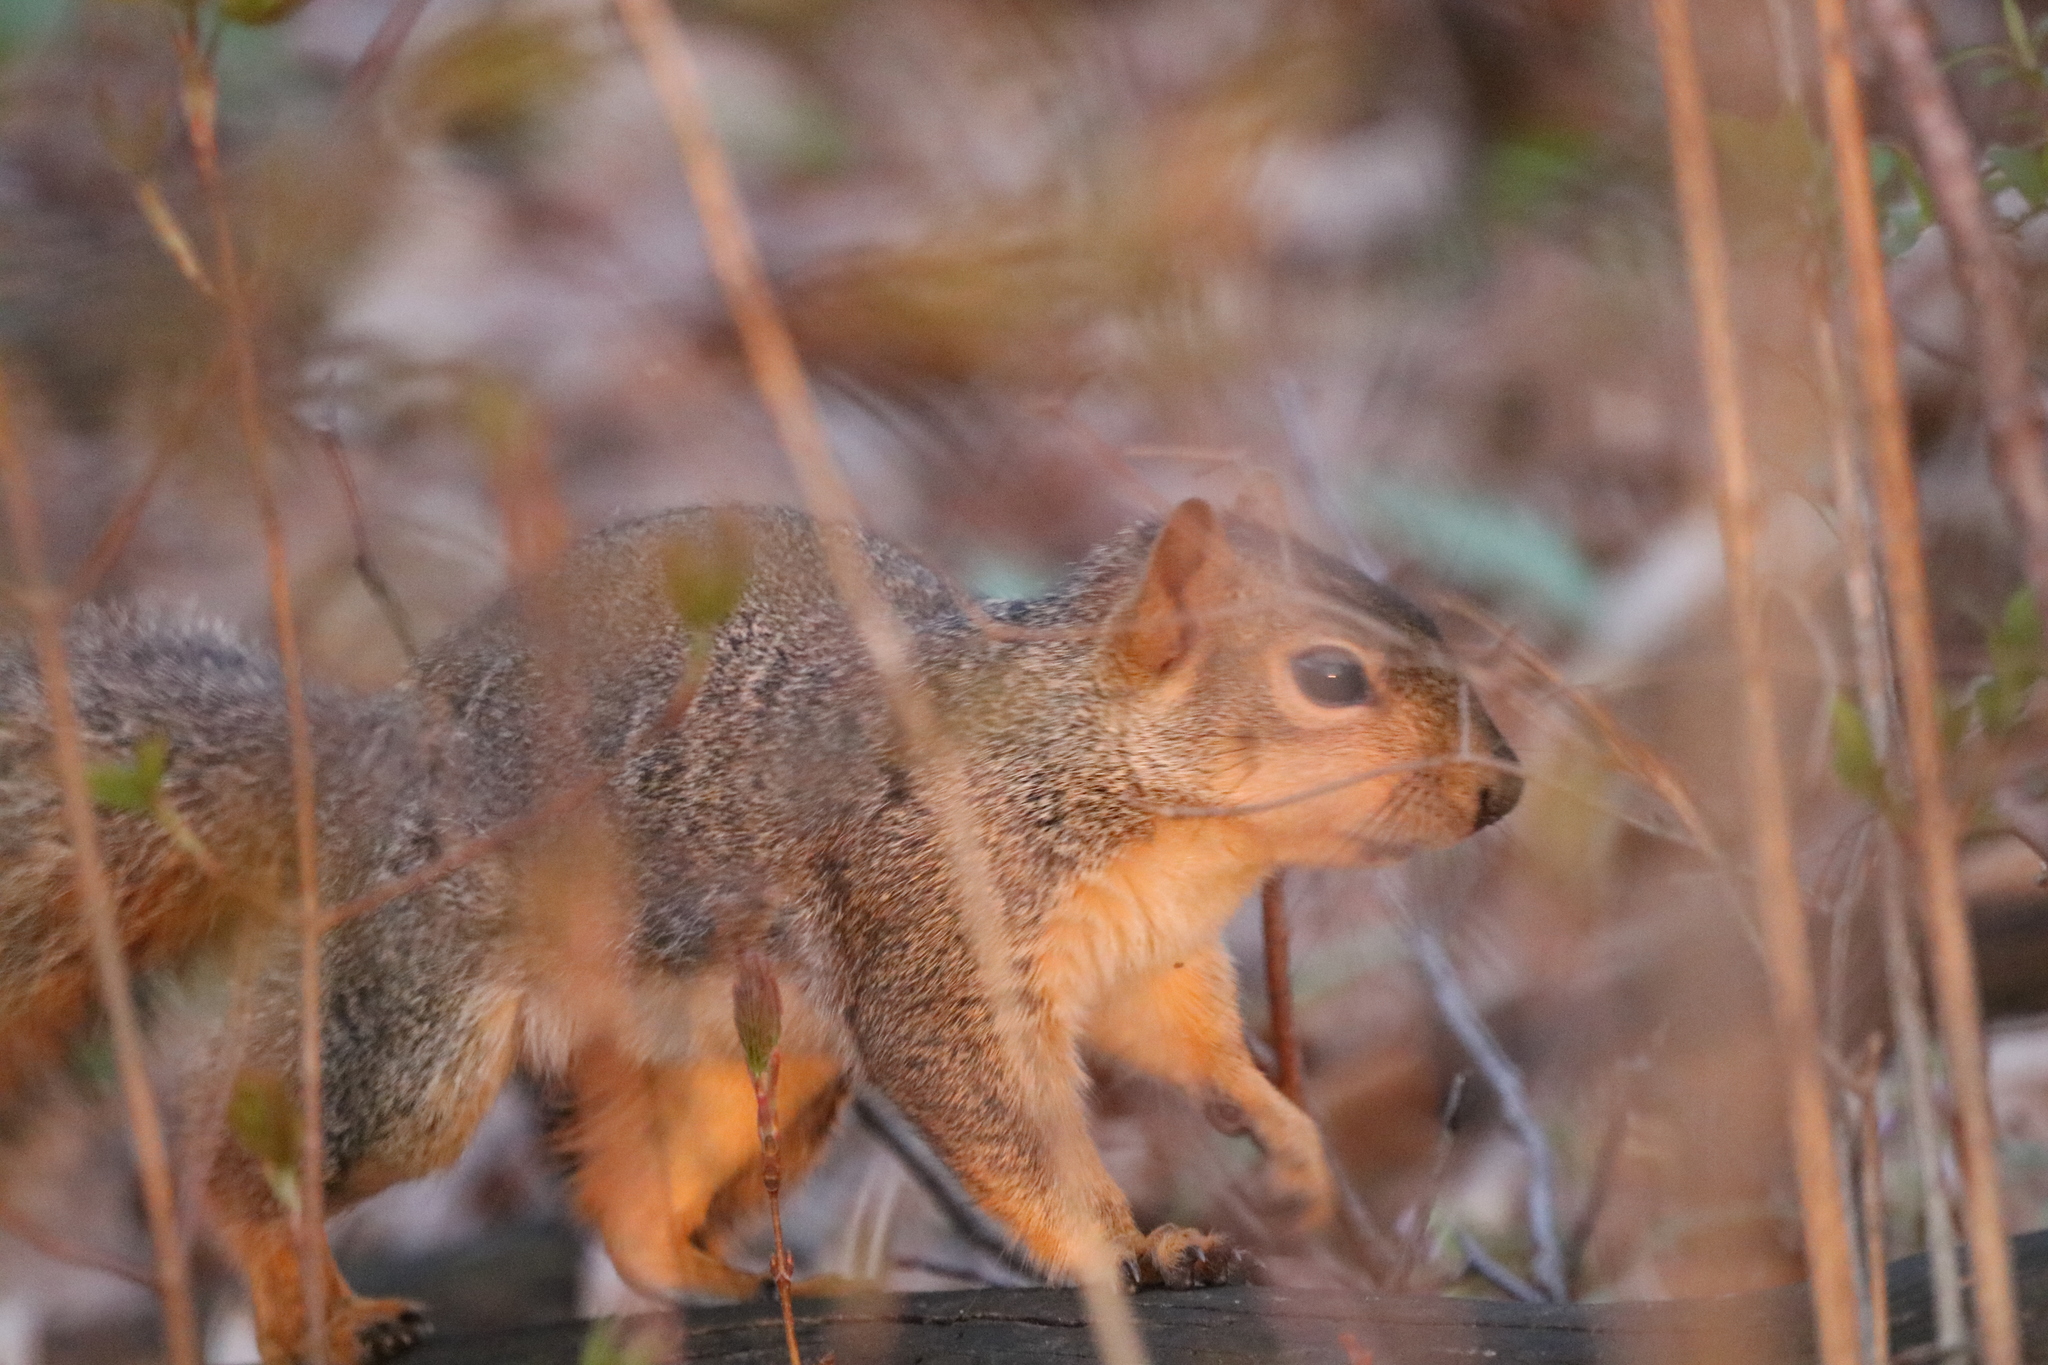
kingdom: Animalia
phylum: Chordata
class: Mammalia
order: Rodentia
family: Sciuridae
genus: Sciurus
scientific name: Sciurus niger
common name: Fox squirrel
